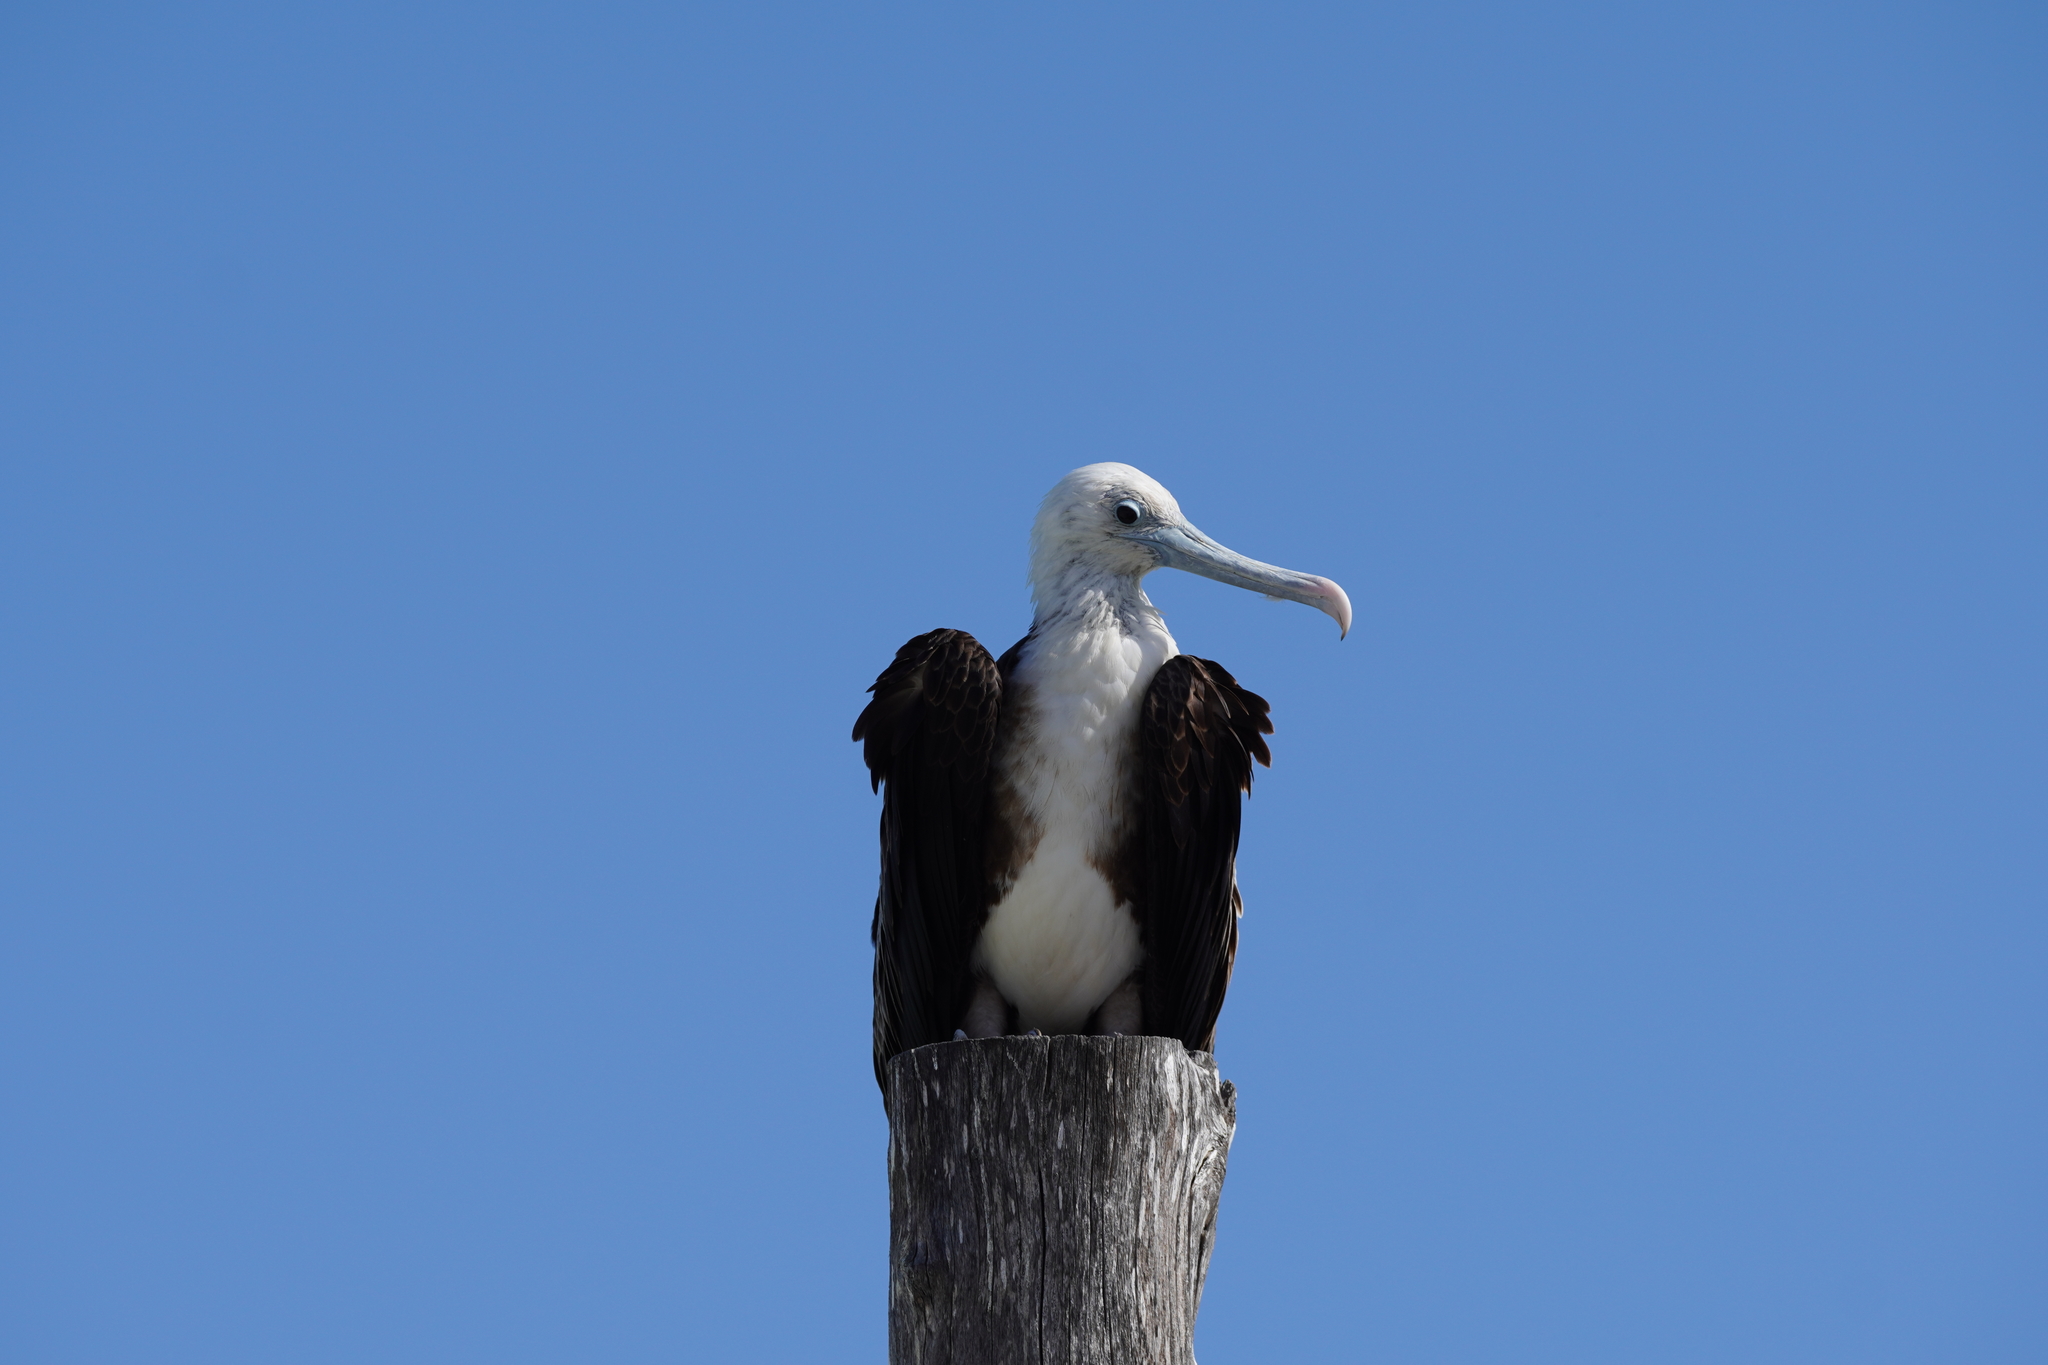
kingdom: Animalia
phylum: Chordata
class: Aves
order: Suliformes
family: Fregatidae
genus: Fregata
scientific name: Fregata magnificens
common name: Magnificent frigatebird
